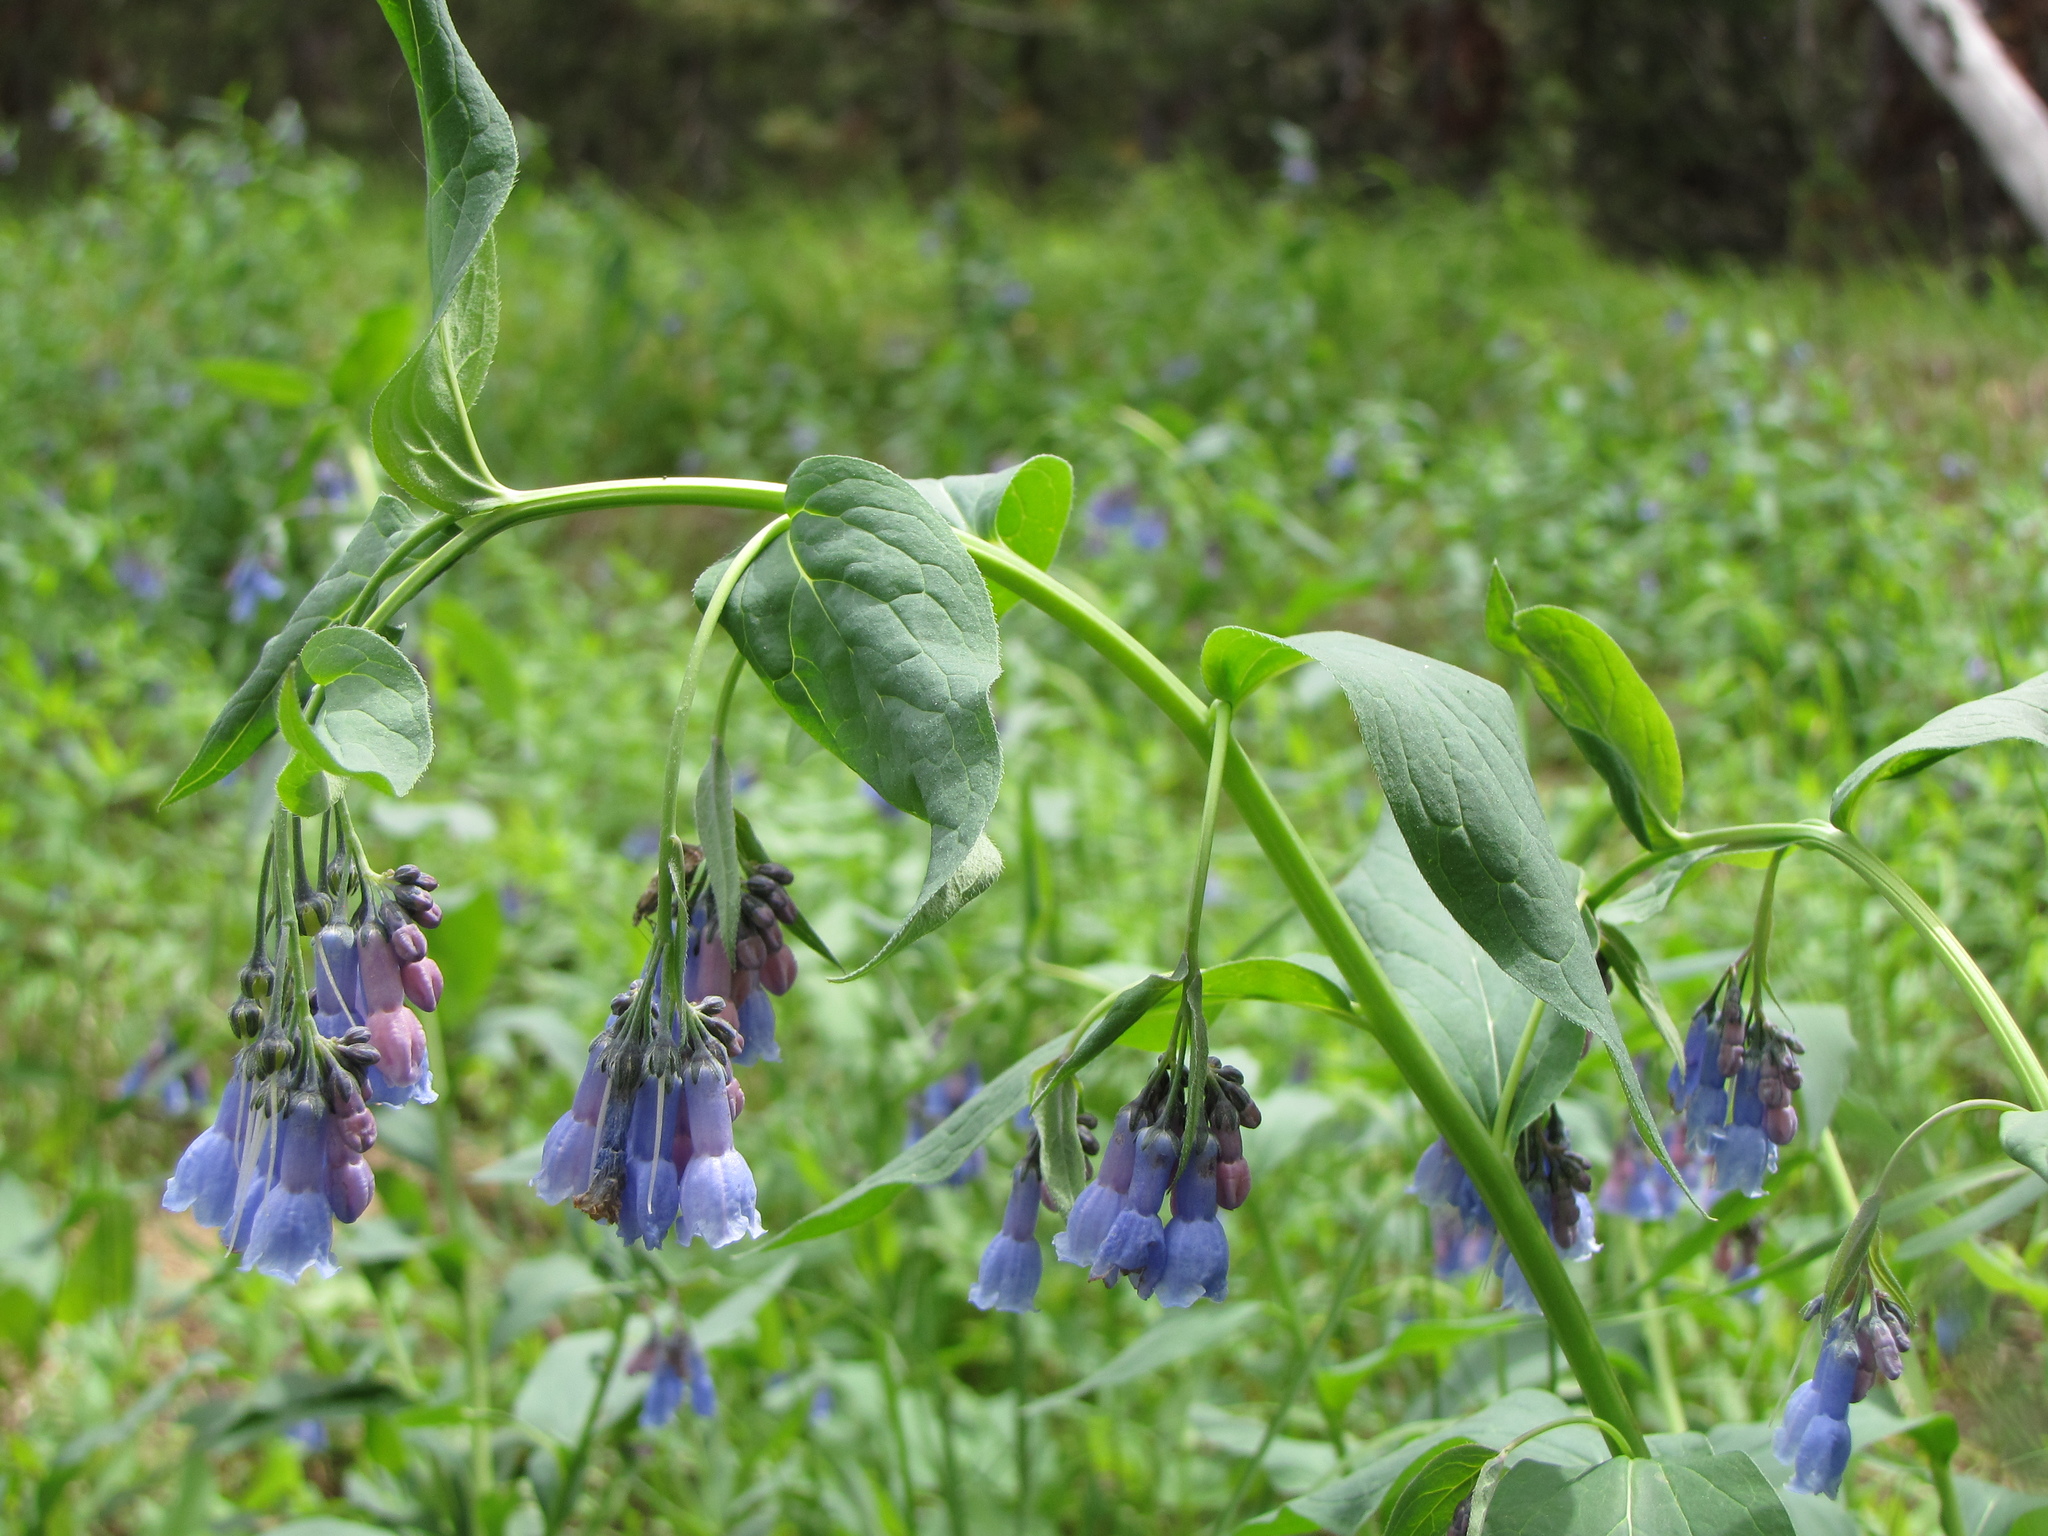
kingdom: Plantae
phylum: Tracheophyta
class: Magnoliopsida
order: Boraginales
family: Boraginaceae
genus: Mertensia
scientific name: Mertensia ciliata
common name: Tall chiming-bells
